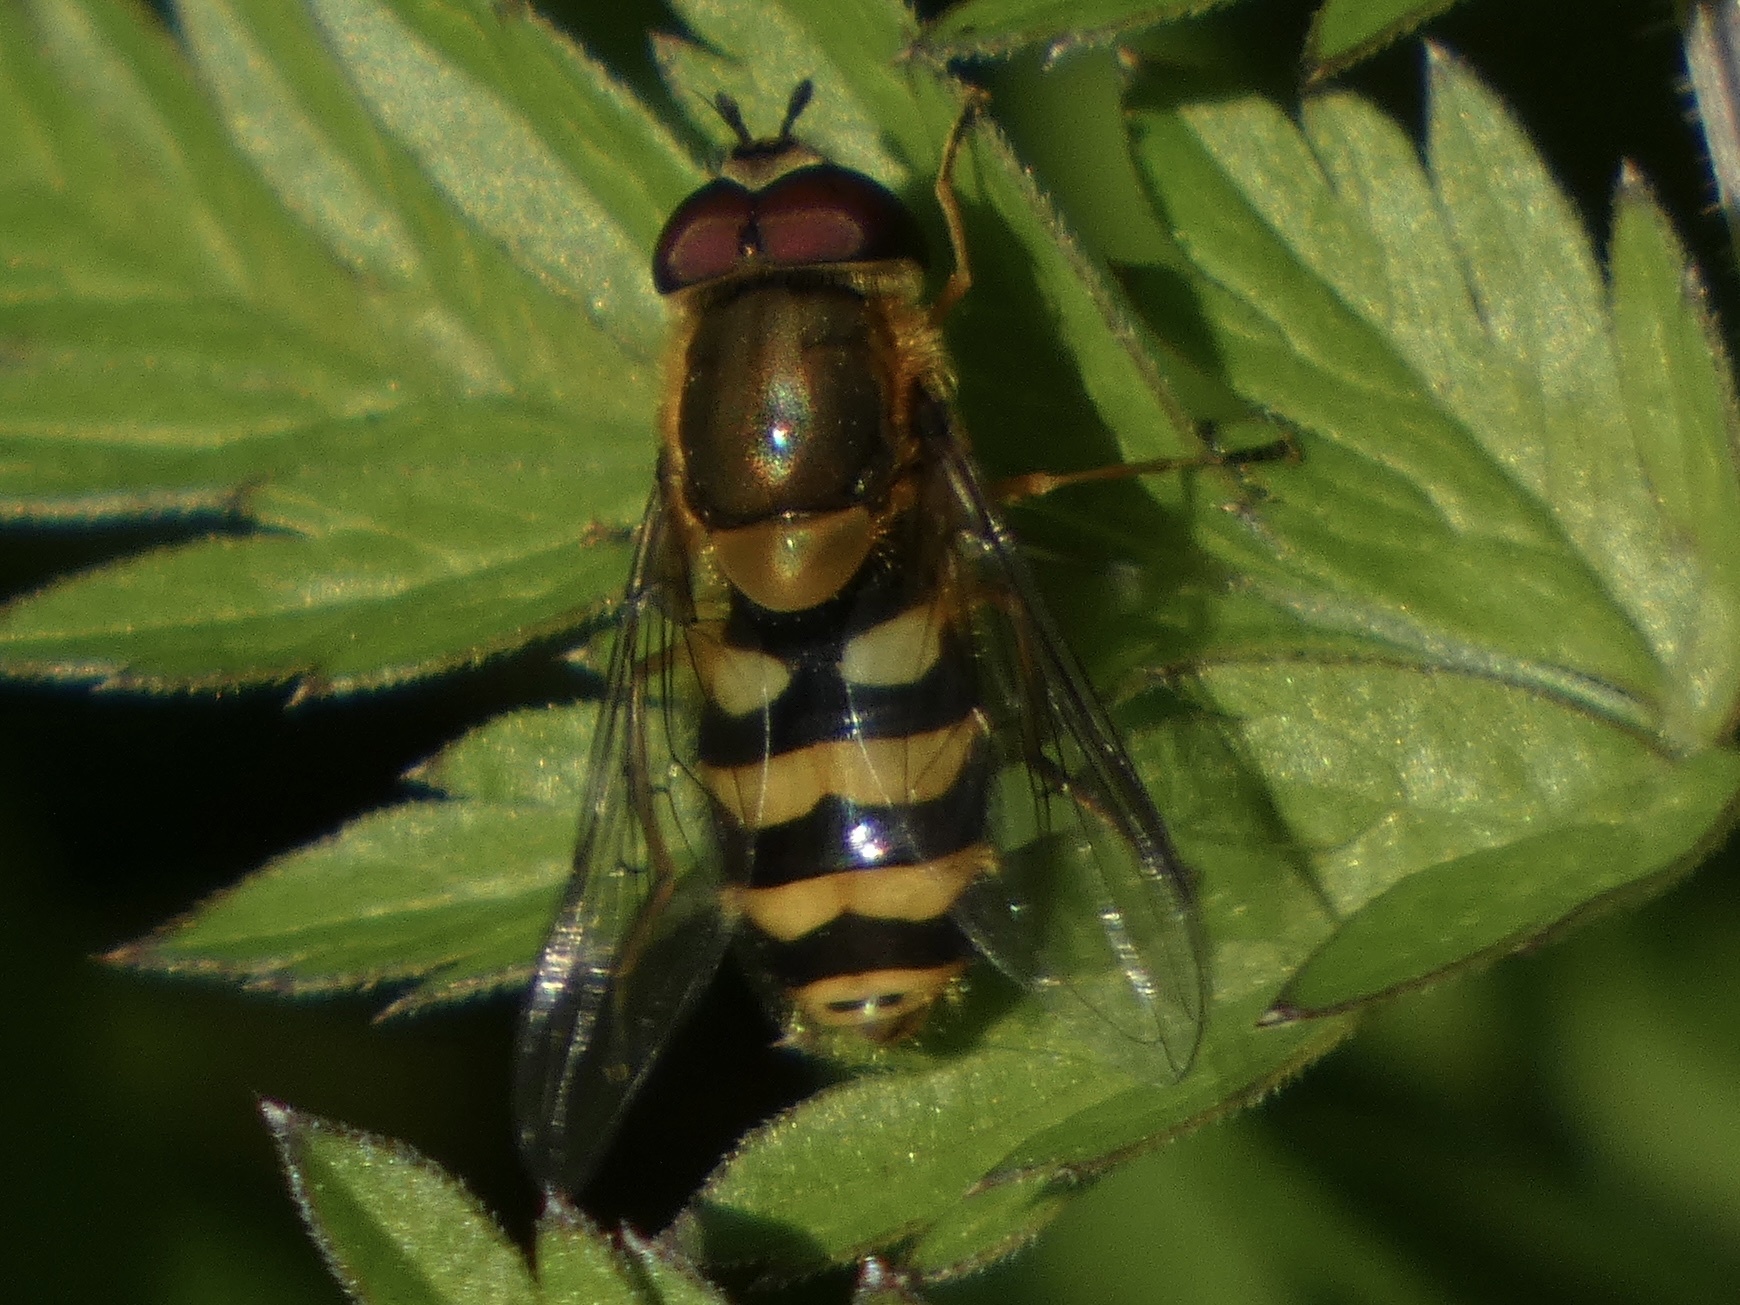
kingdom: Animalia
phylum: Arthropoda
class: Insecta
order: Diptera
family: Syrphidae
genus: Syrphus
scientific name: Syrphus
